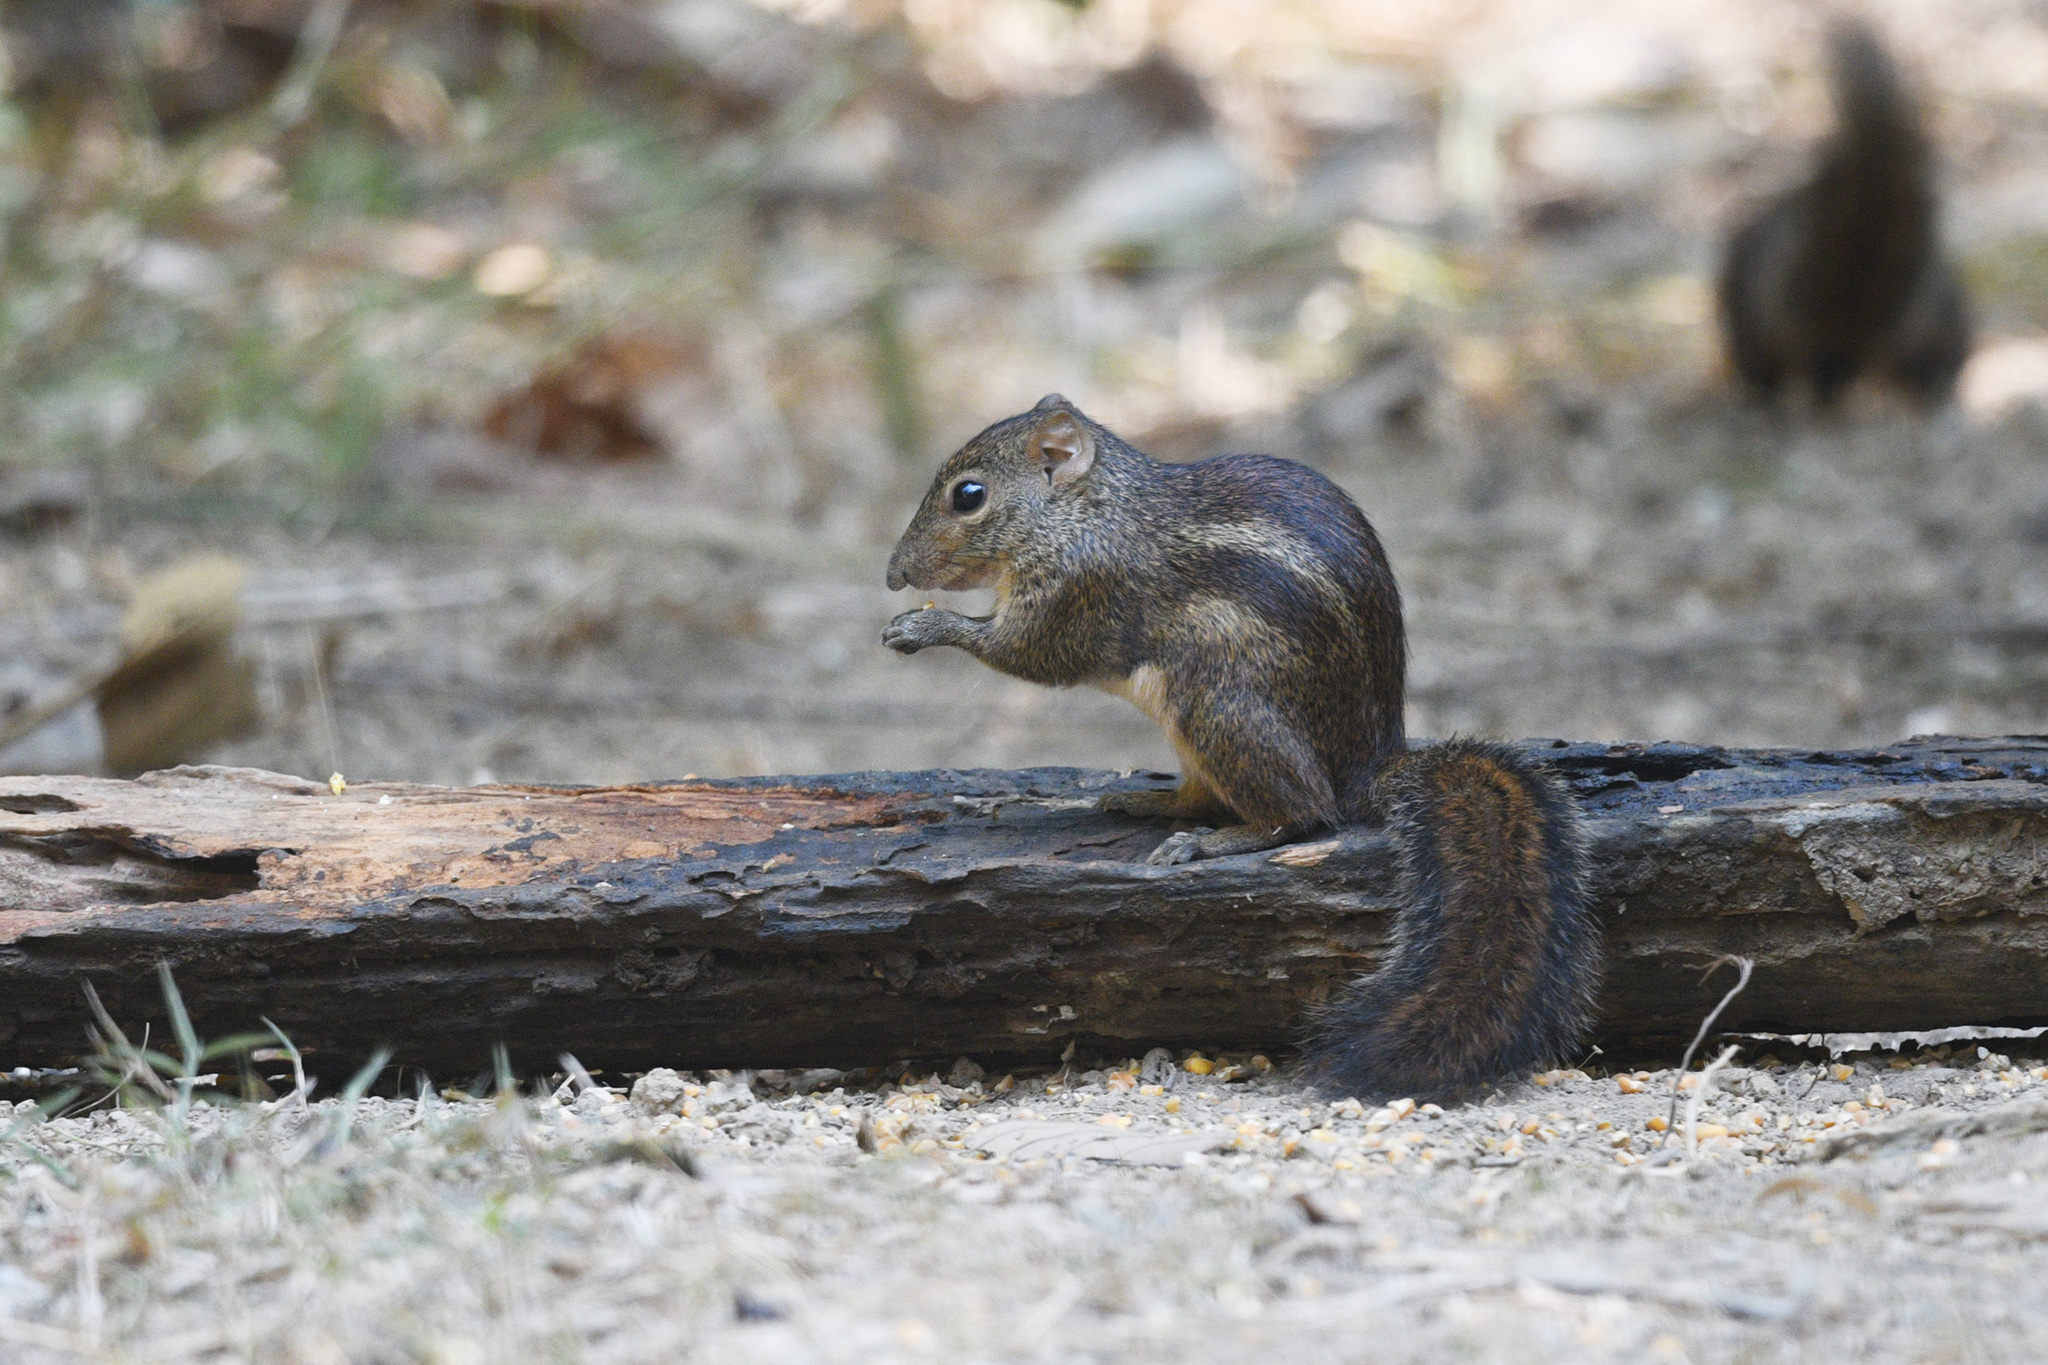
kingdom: Animalia
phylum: Chordata
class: Mammalia
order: Rodentia
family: Sciuridae
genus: Menetes
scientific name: Menetes berdmorei
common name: Indochinese ground squirrel
